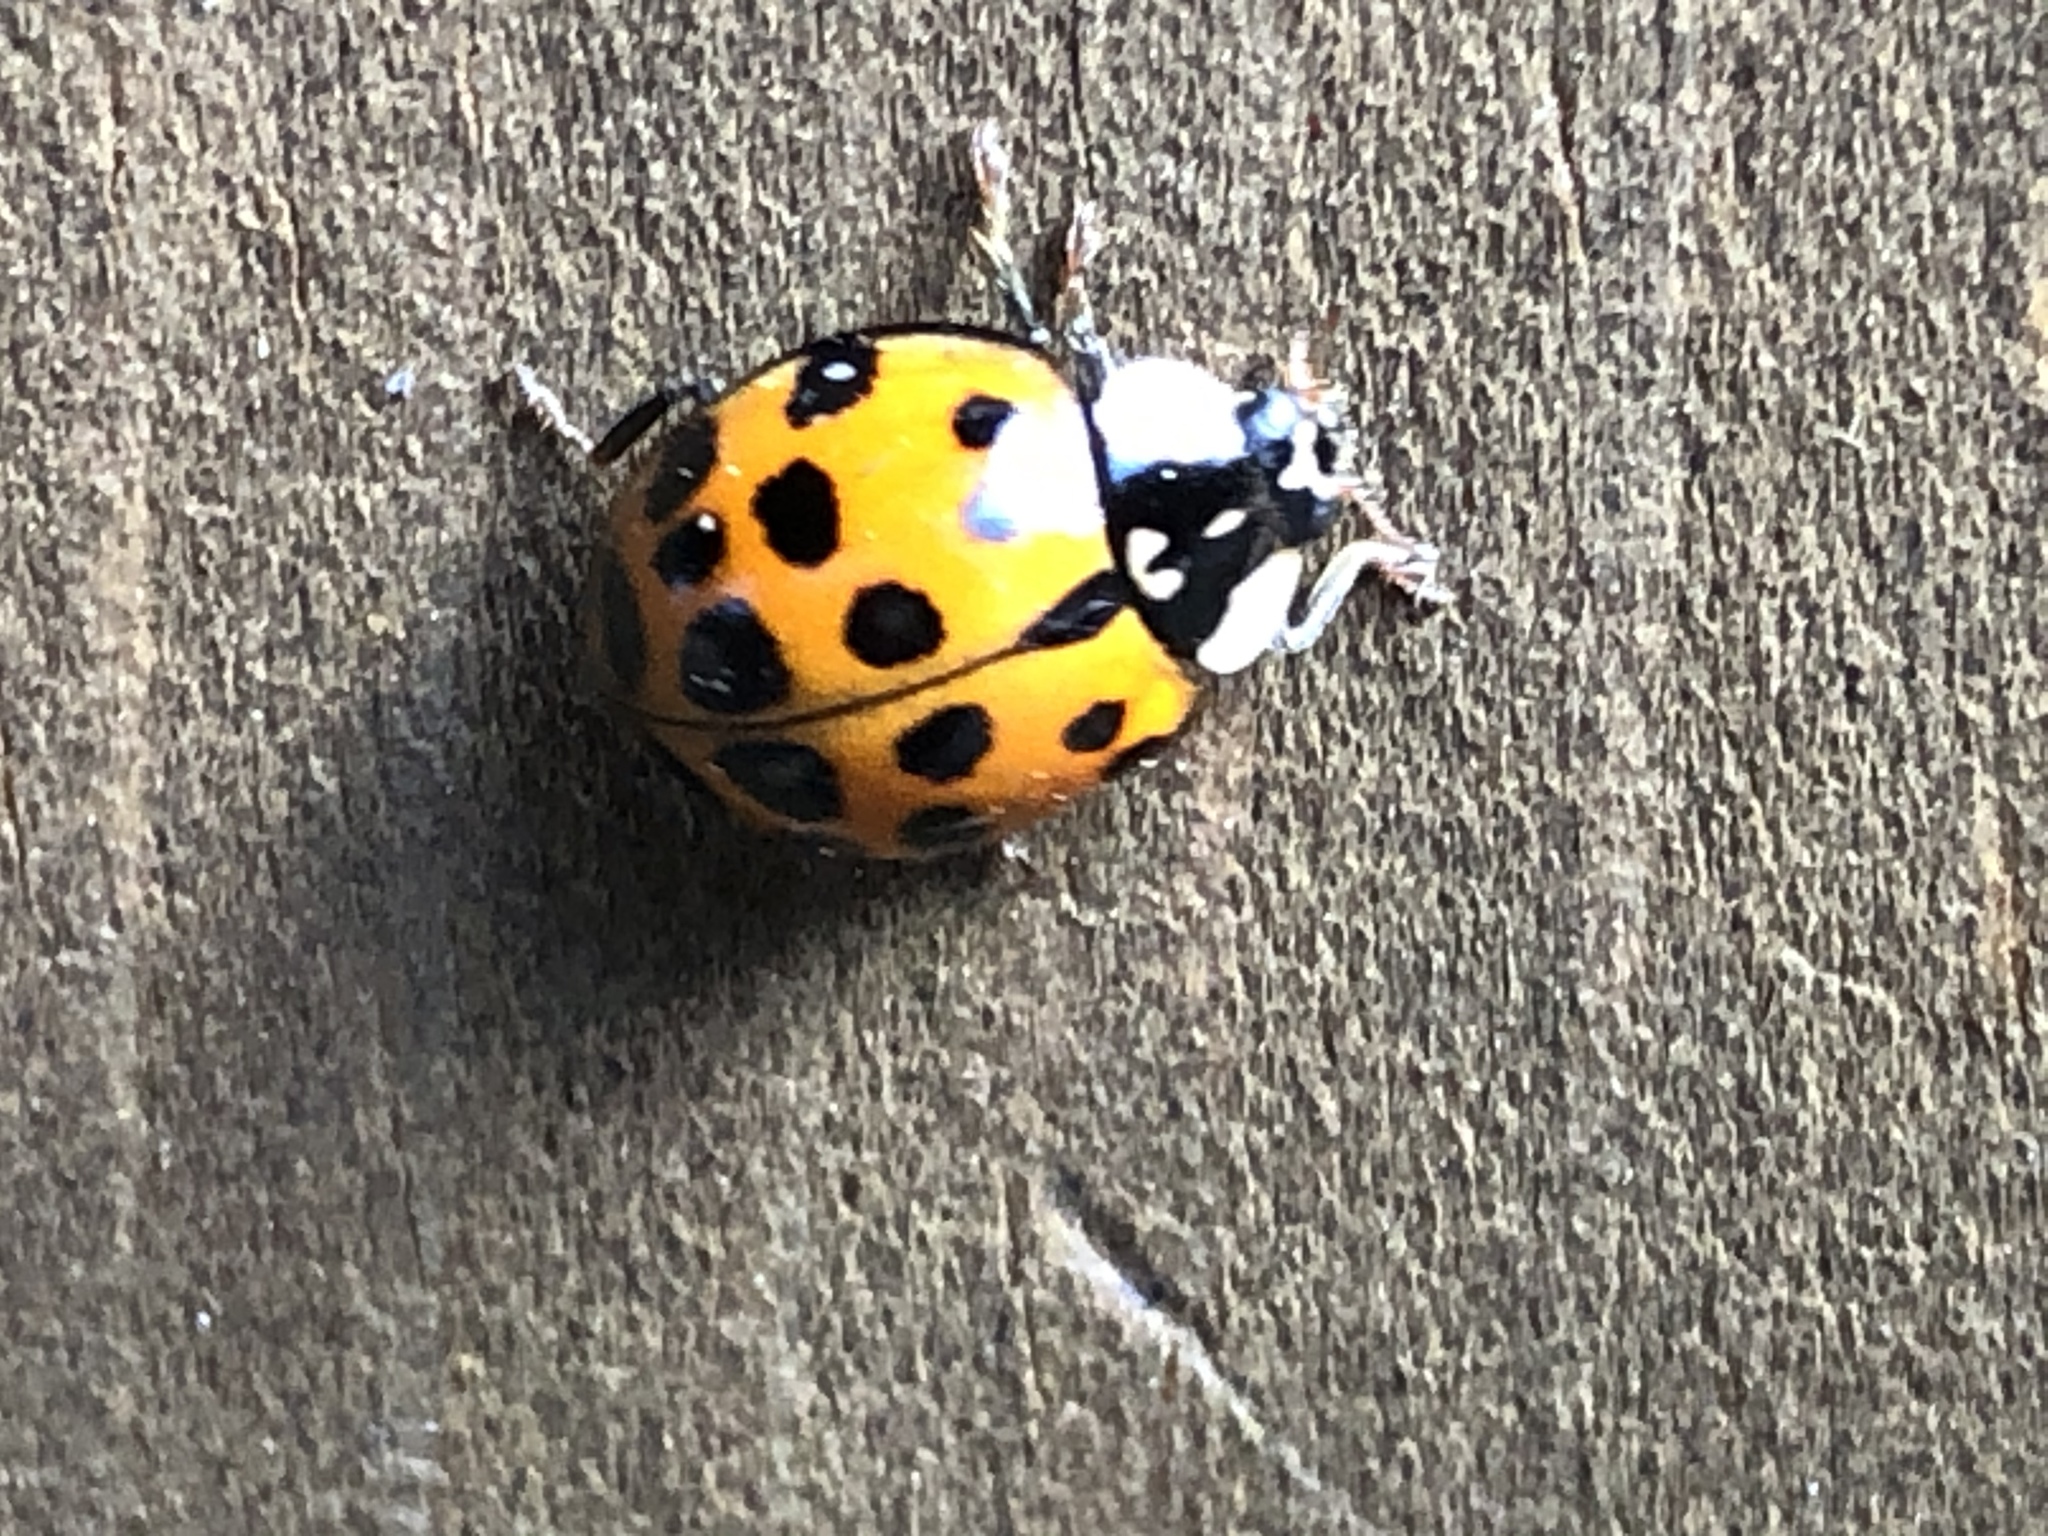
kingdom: Animalia
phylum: Arthropoda
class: Insecta
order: Coleoptera
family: Coccinellidae
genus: Harmonia
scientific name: Harmonia axyridis
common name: Harlequin ladybird
